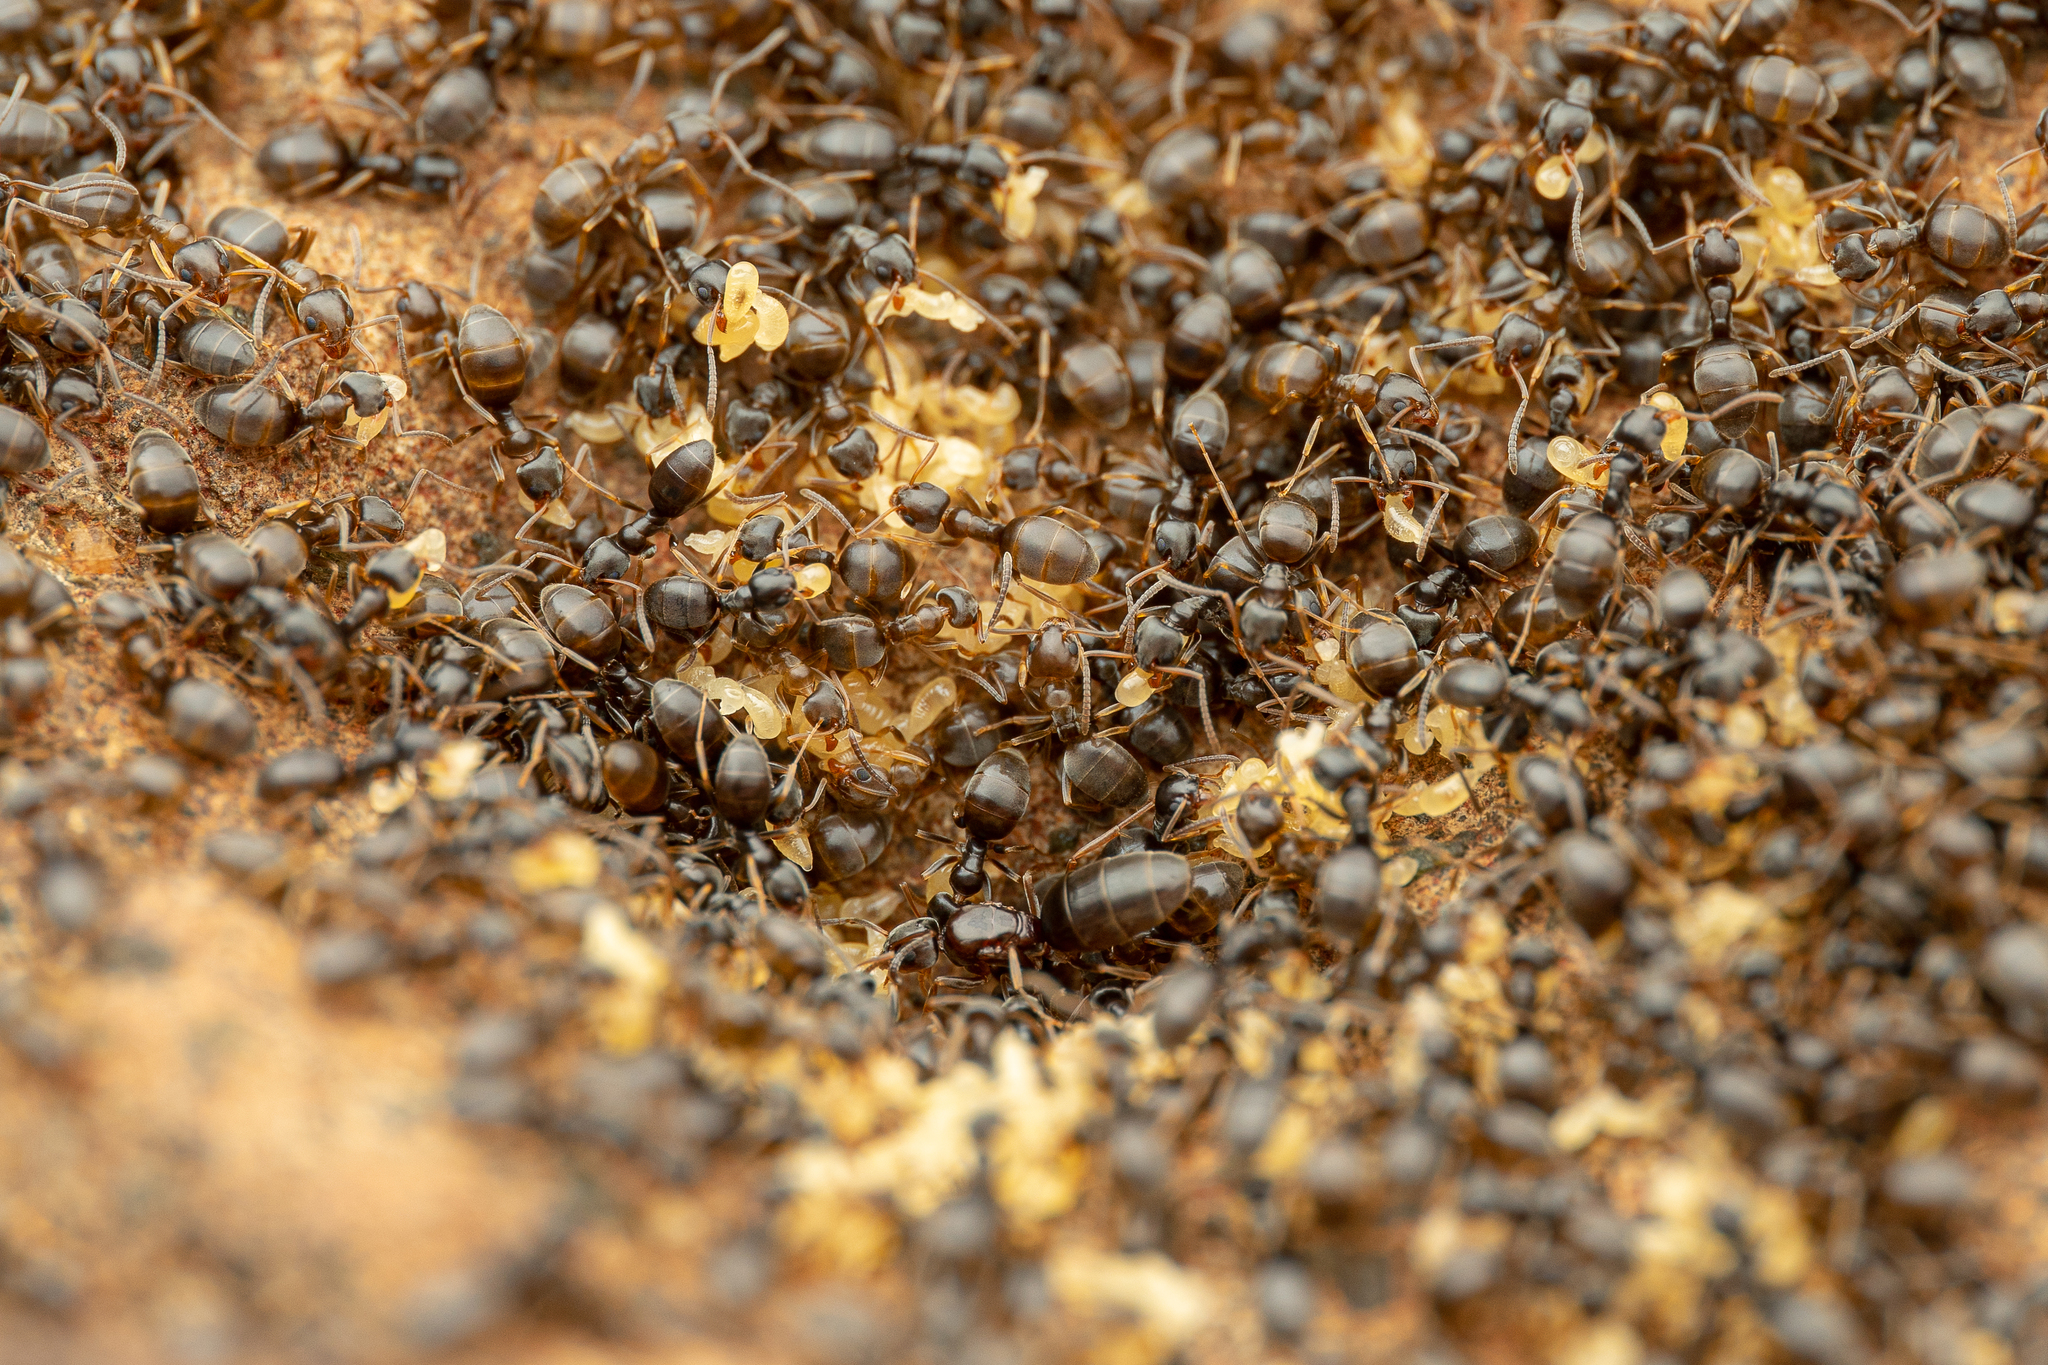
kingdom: Animalia
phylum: Arthropoda
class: Insecta
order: Hymenoptera
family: Formicidae
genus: Tapinoma
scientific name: Tapinoma sessile
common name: Odorous house ant
